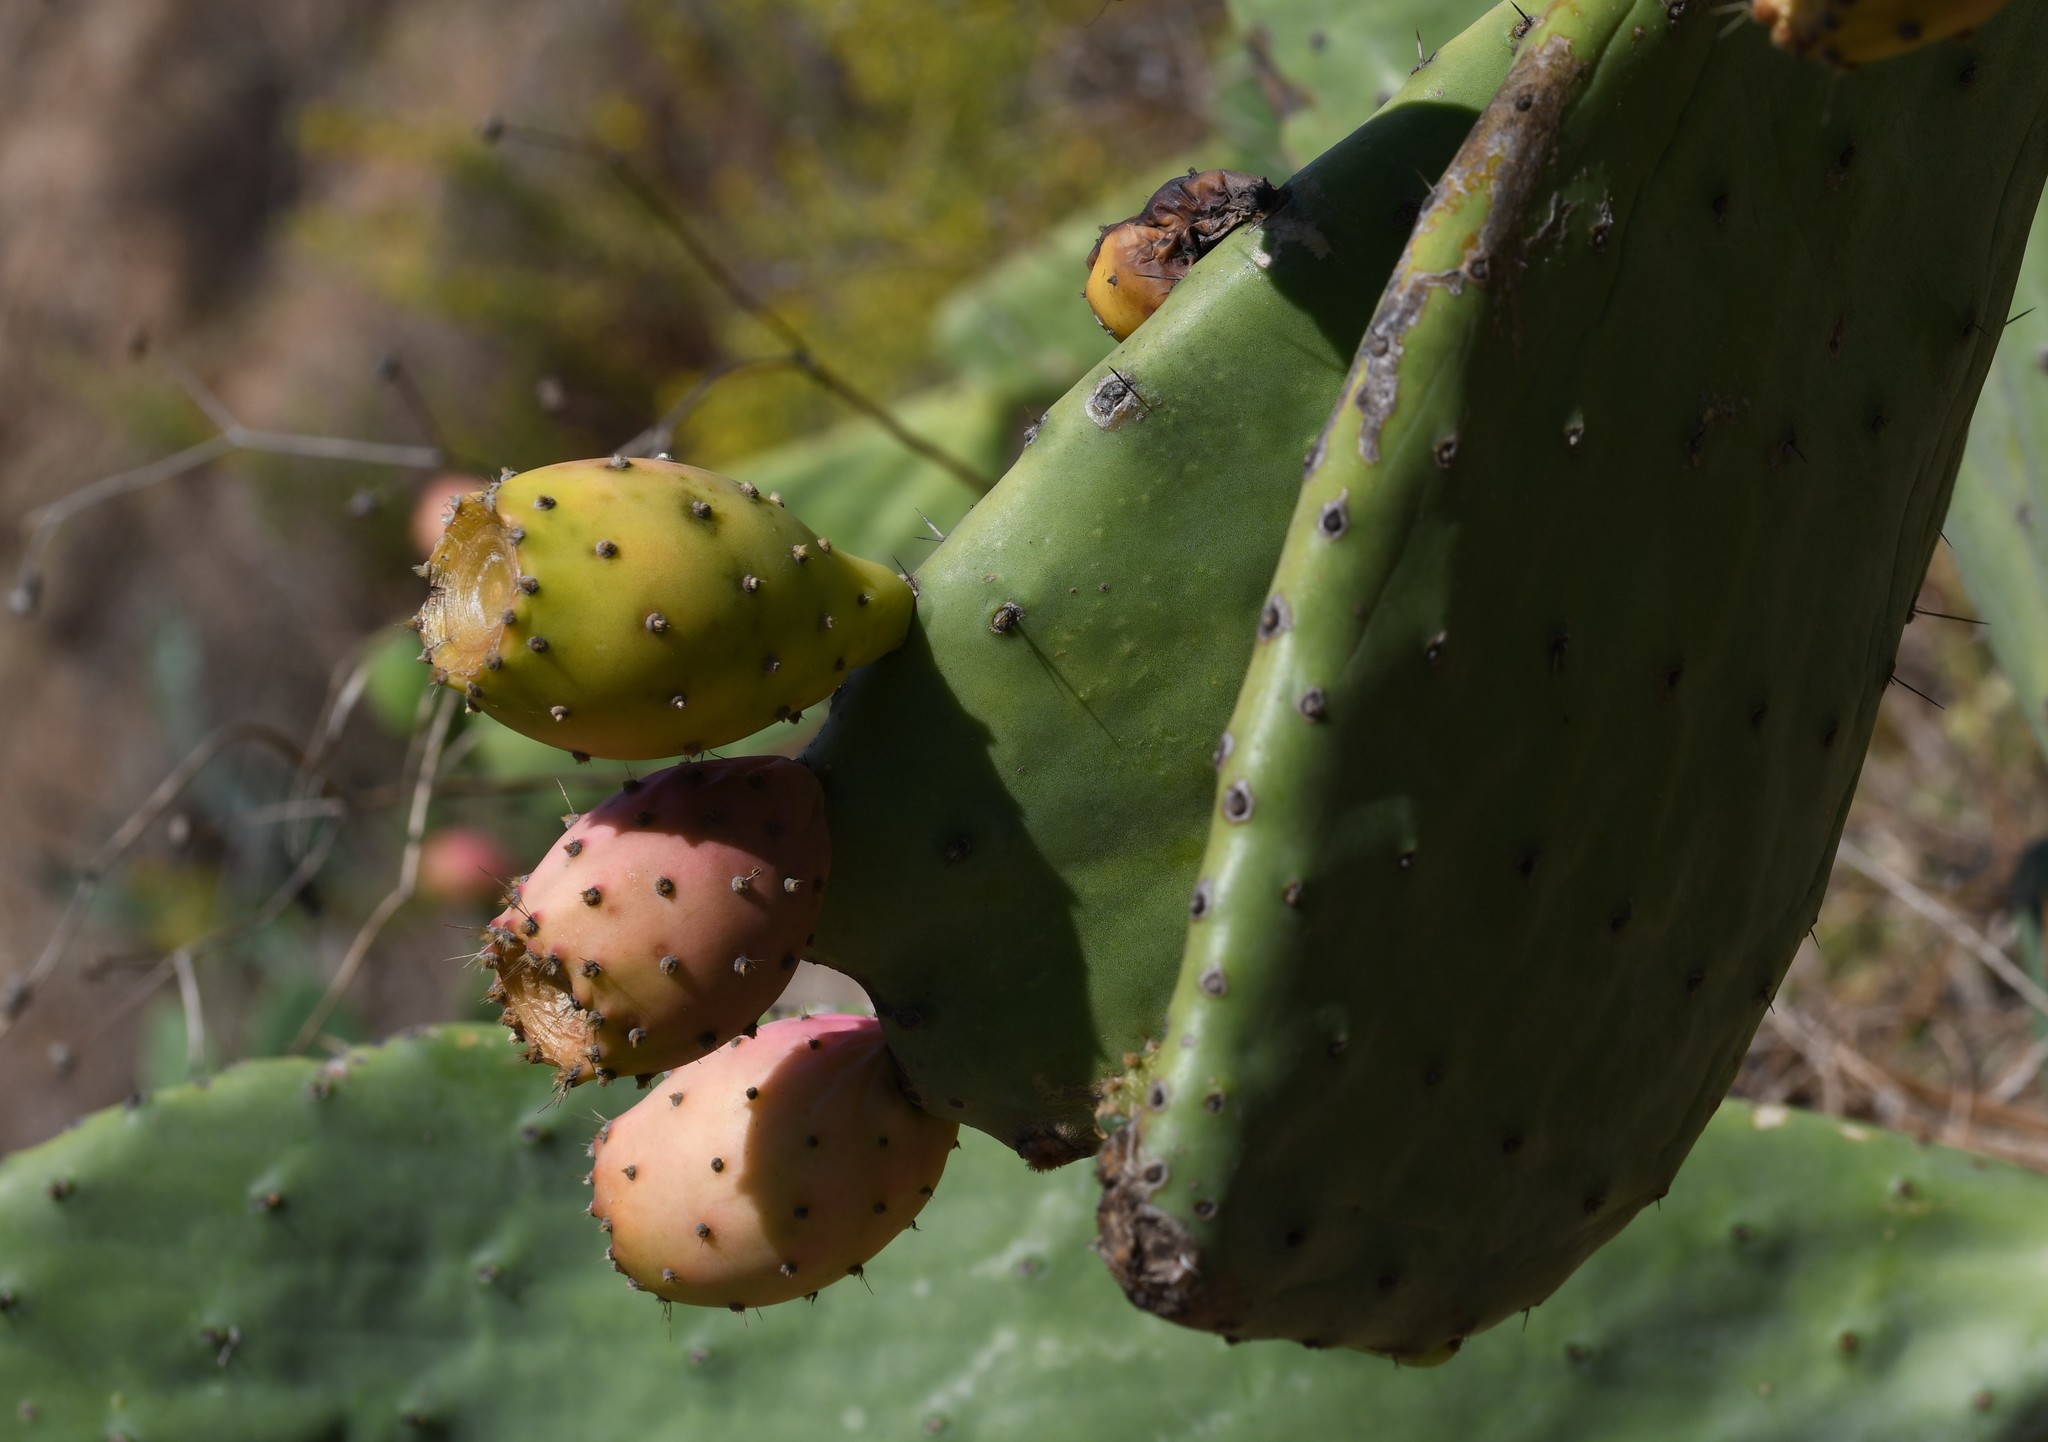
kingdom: Plantae
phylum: Tracheophyta
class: Magnoliopsida
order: Caryophyllales
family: Cactaceae
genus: Opuntia
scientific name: Opuntia ficus-indica
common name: Barbary fig
